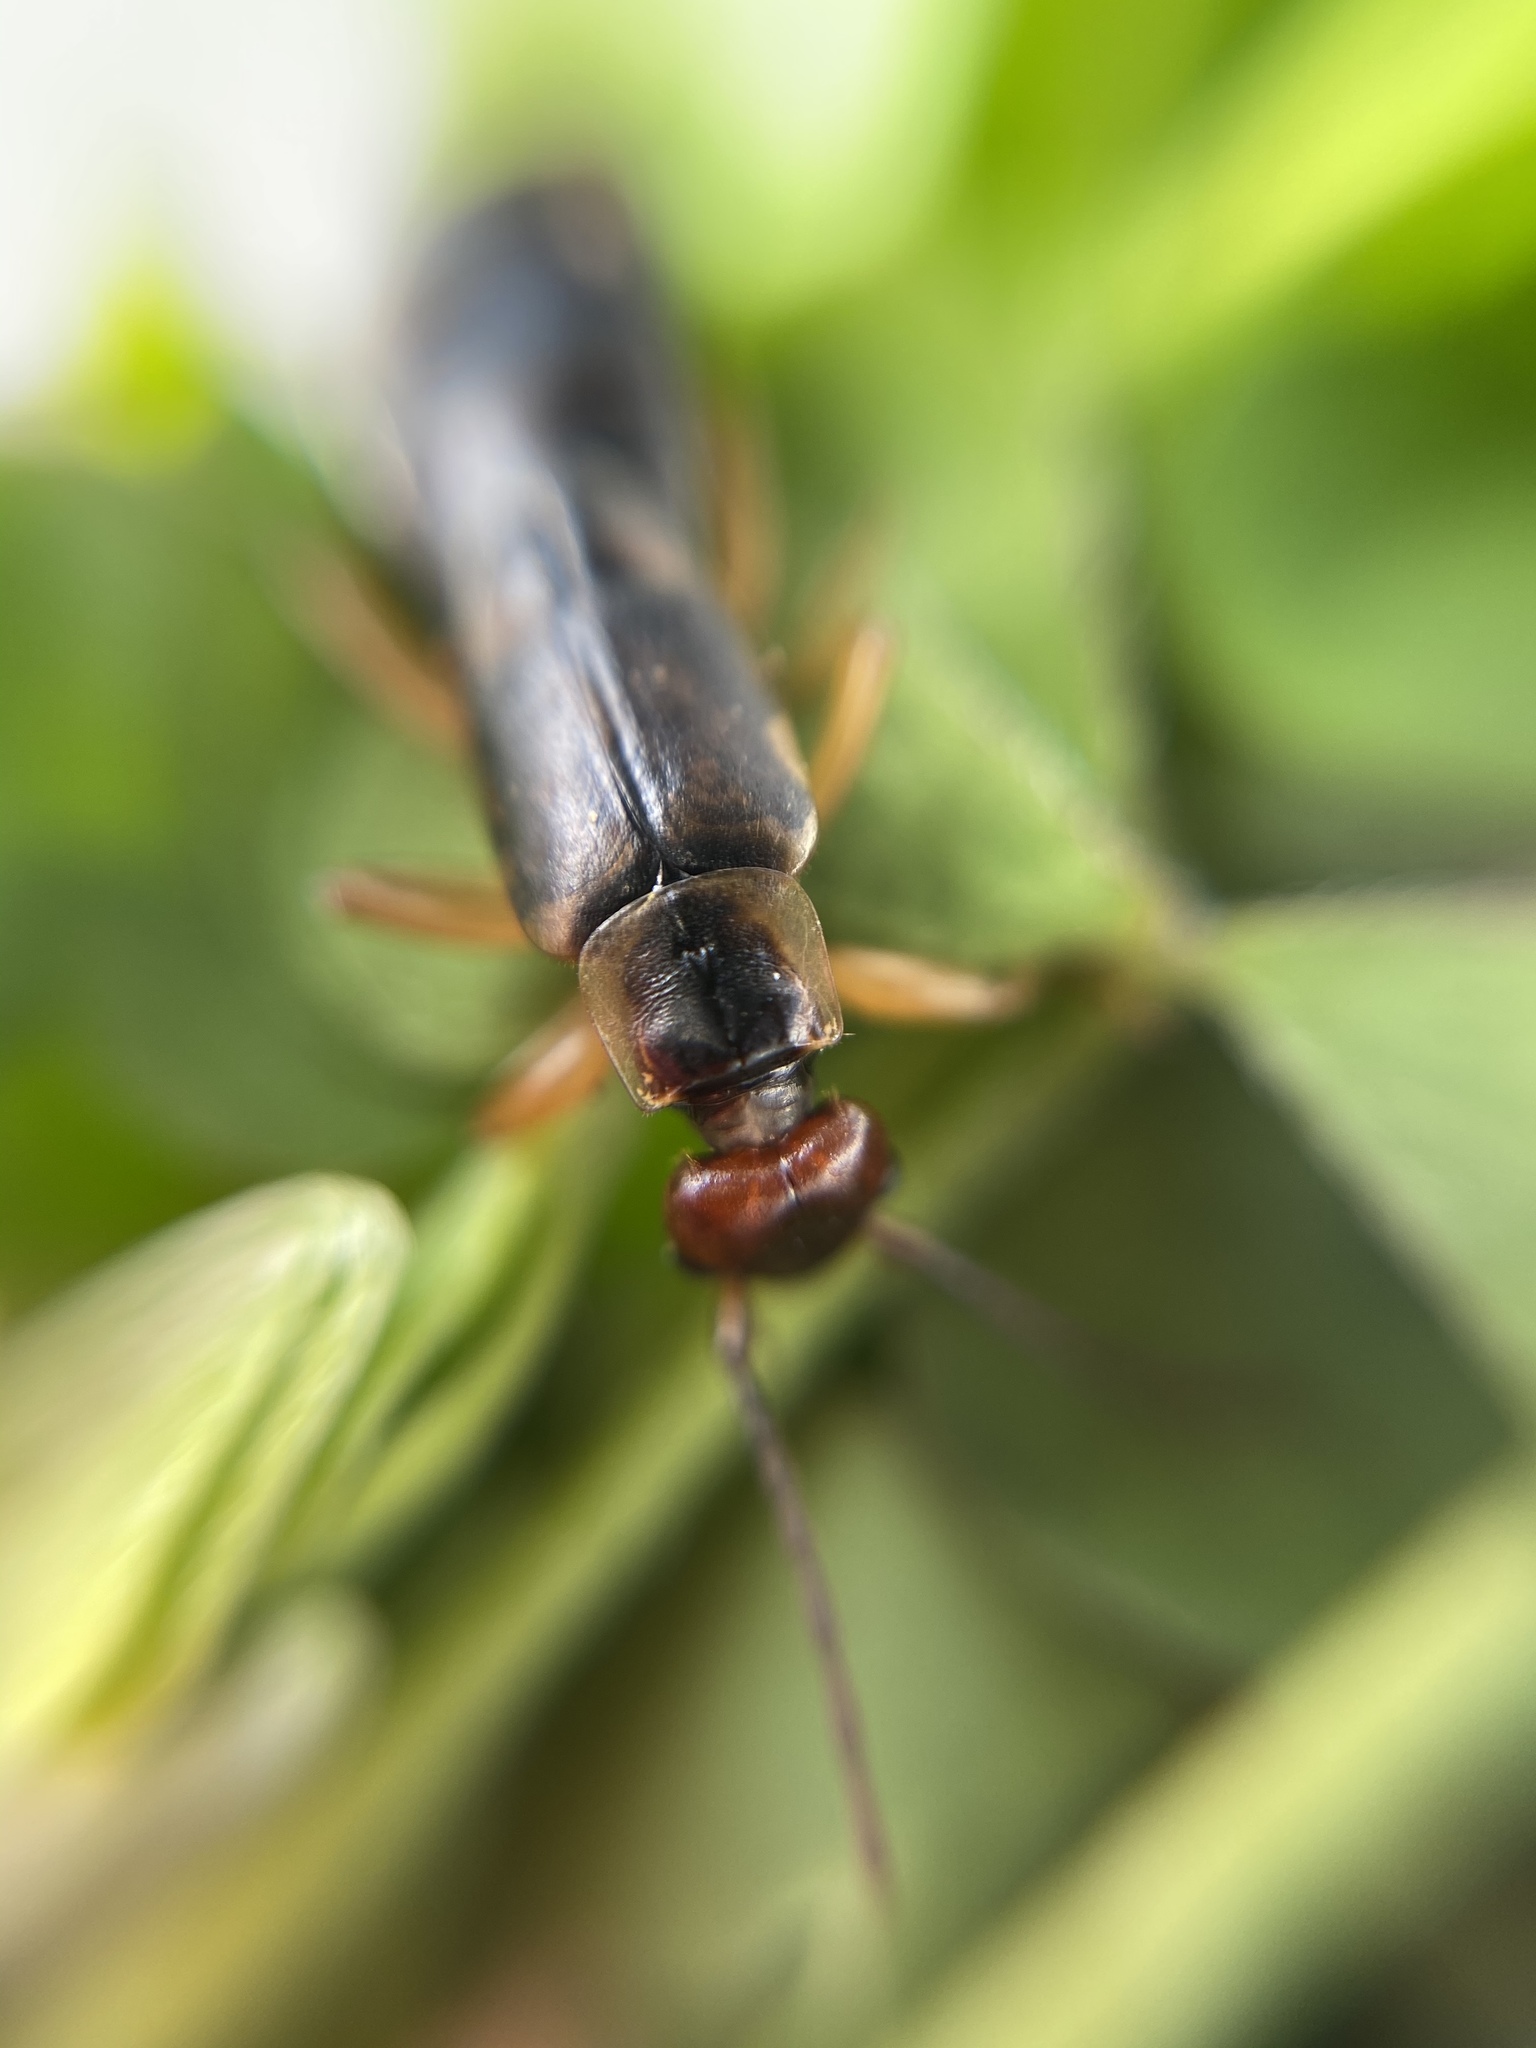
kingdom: Animalia
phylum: Arthropoda
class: Insecta
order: Dermaptera
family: Forficulidae
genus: Forficula
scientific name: Forficula
